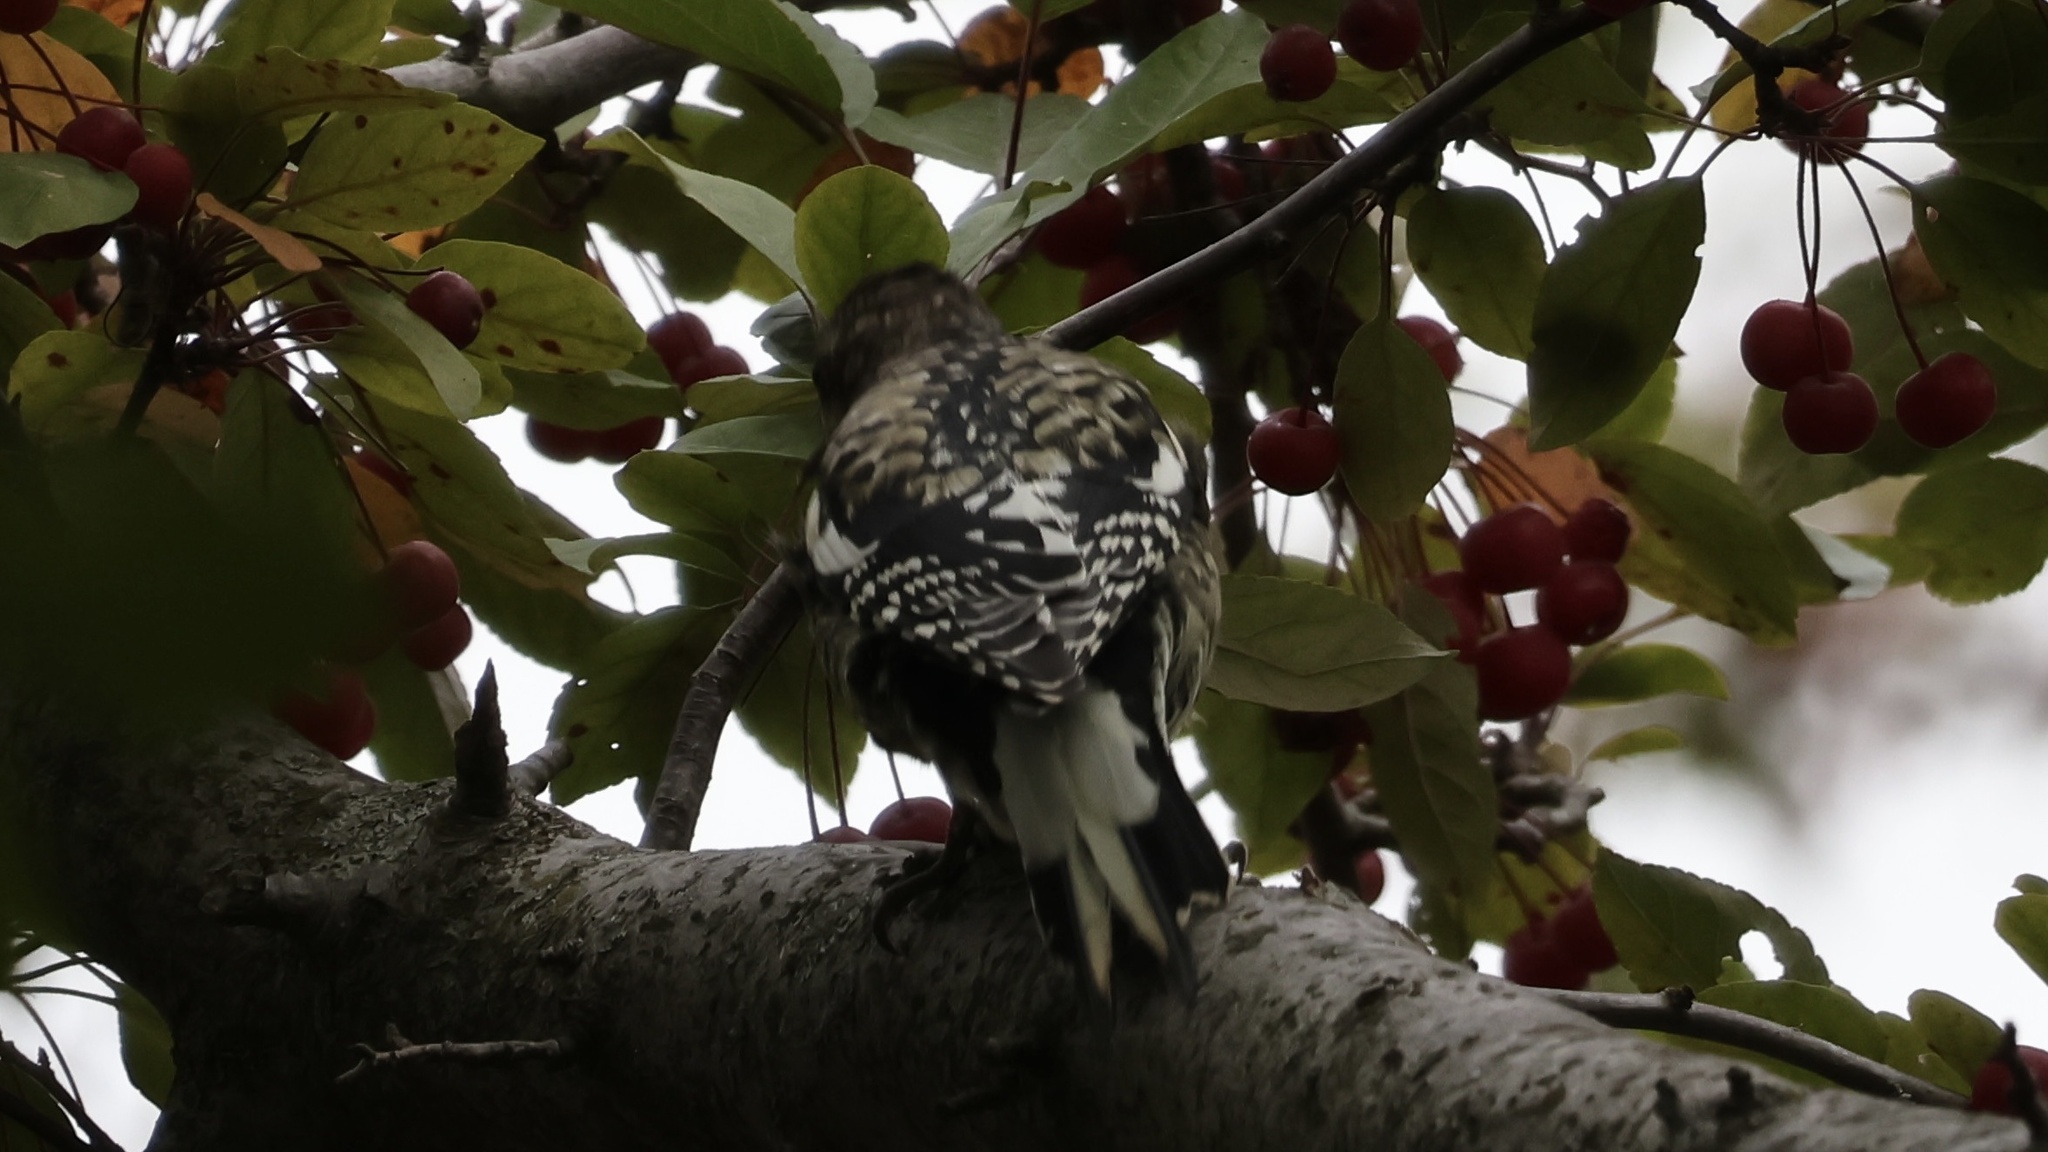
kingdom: Animalia
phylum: Chordata
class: Aves
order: Piciformes
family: Picidae
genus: Sphyrapicus
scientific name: Sphyrapicus varius
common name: Yellow-bellied sapsucker
